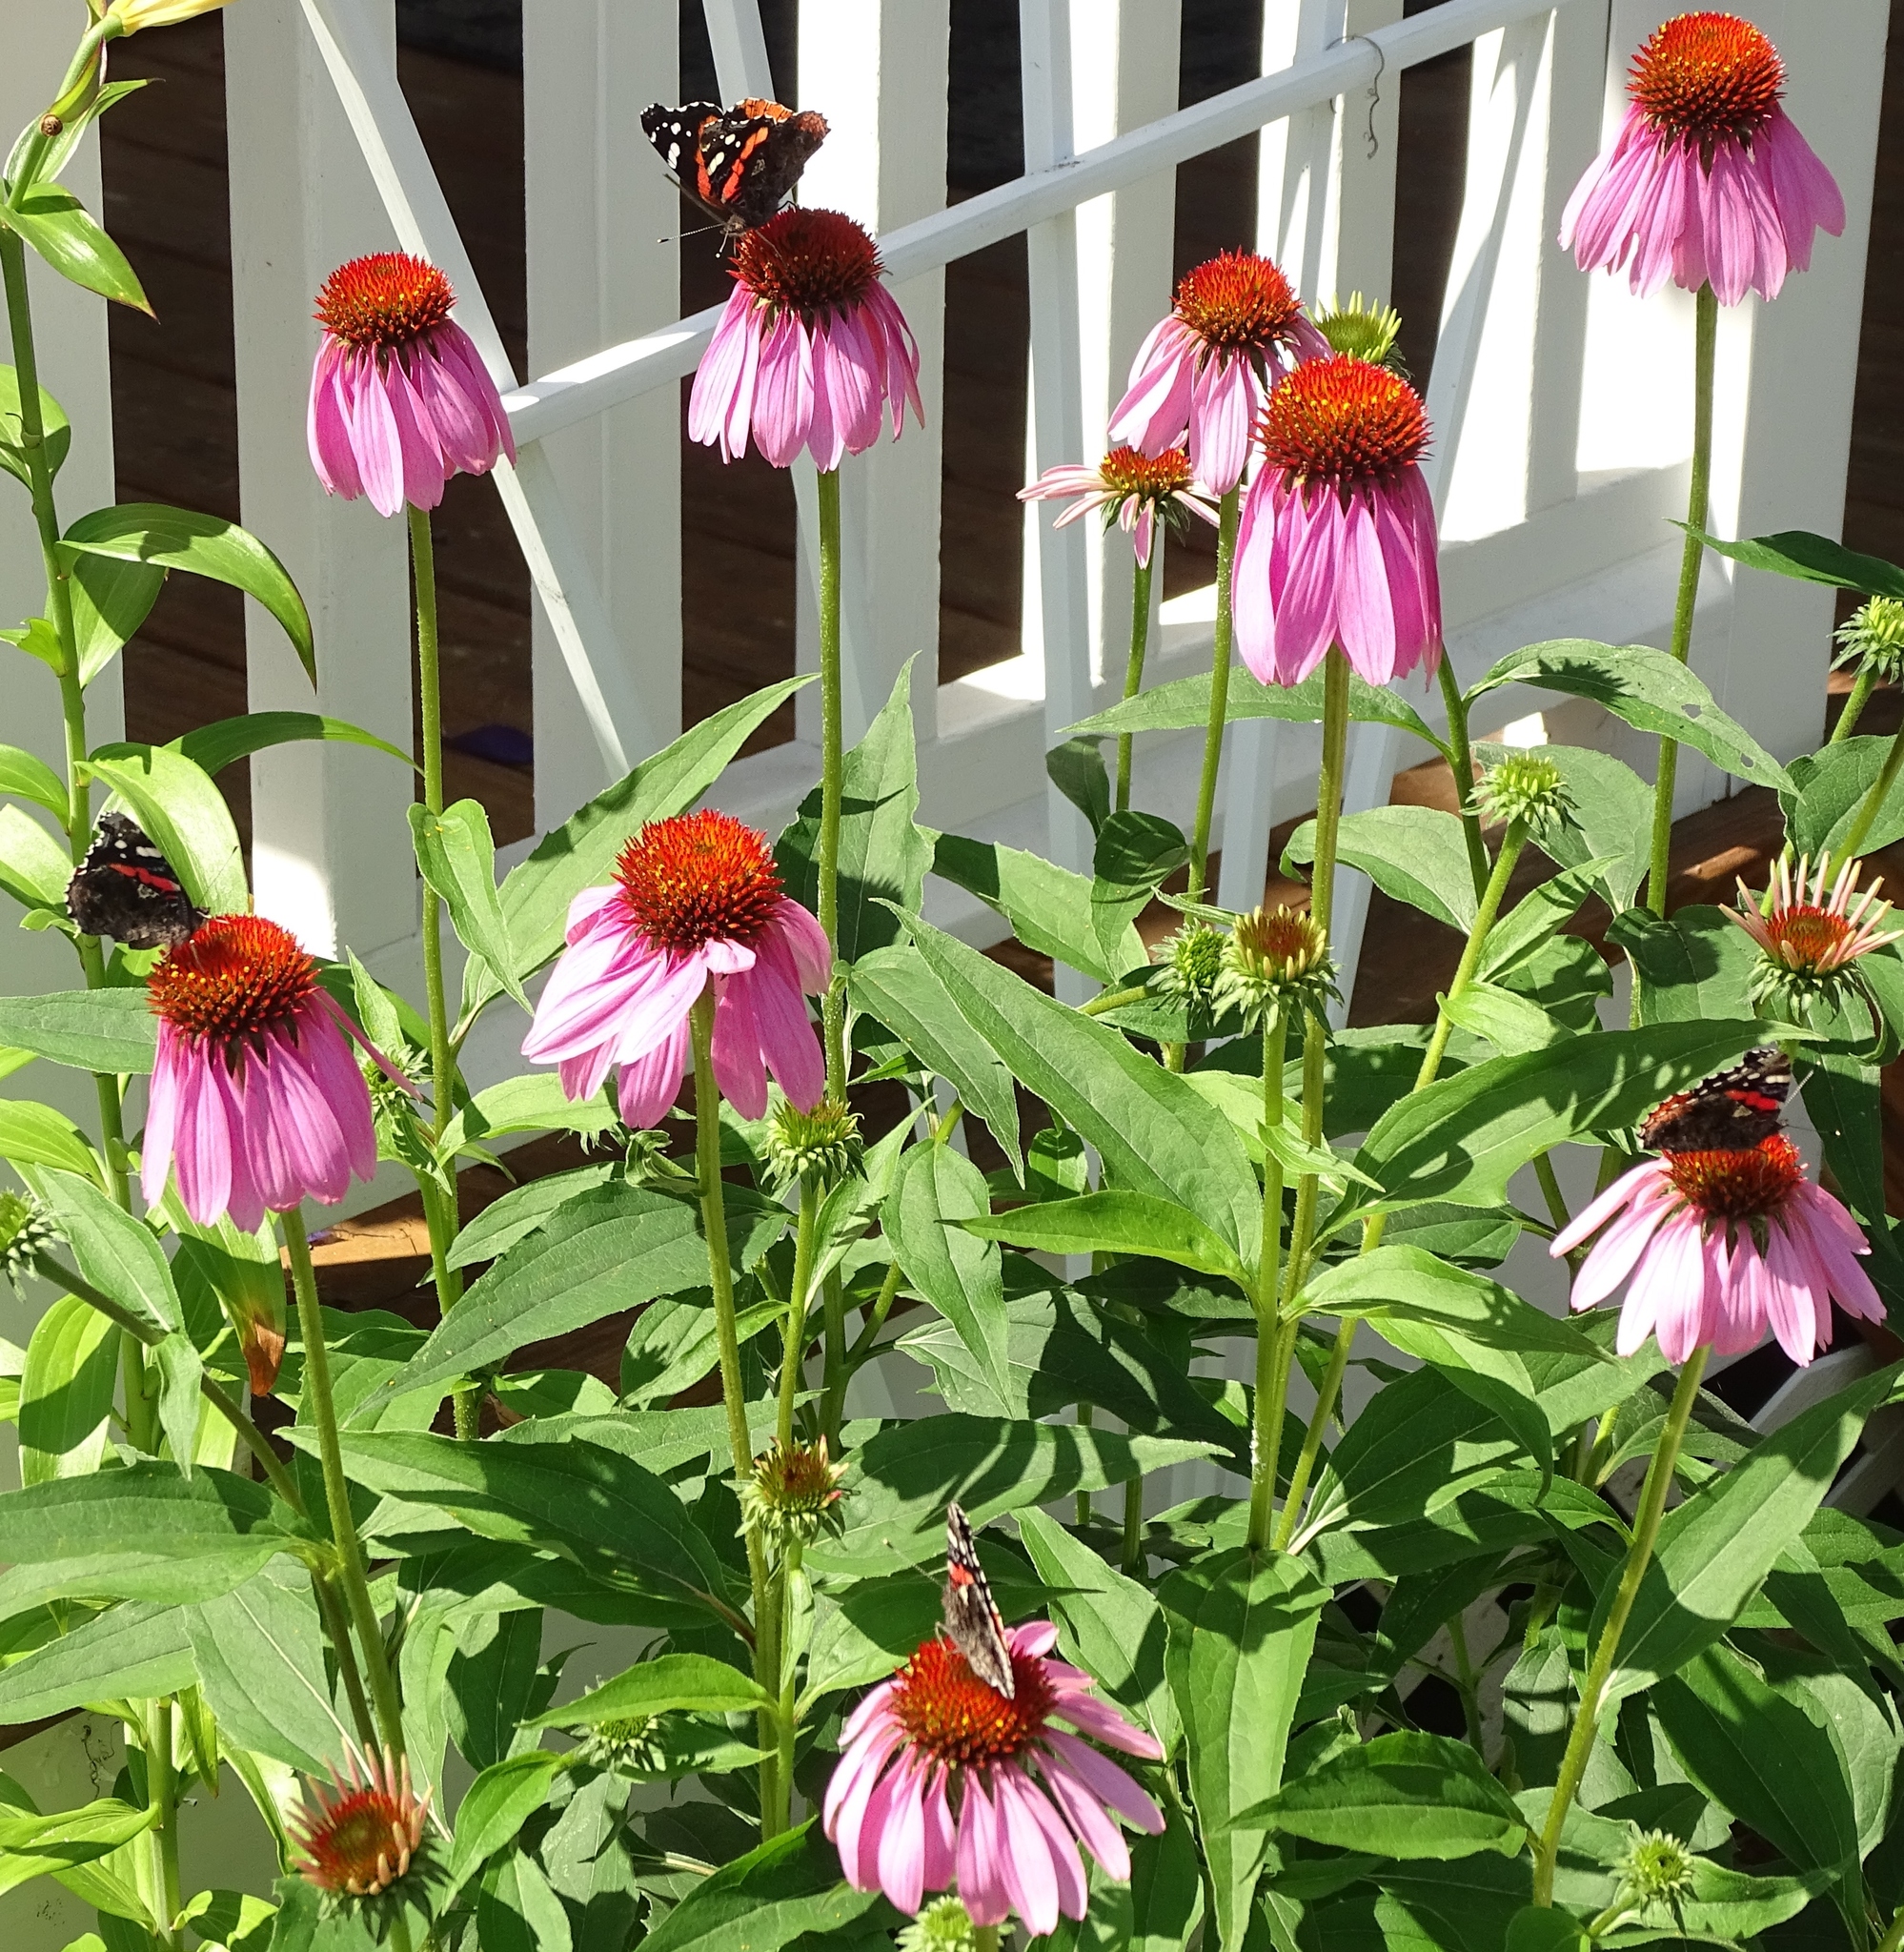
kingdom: Animalia
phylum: Arthropoda
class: Insecta
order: Lepidoptera
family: Nymphalidae
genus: Vanessa
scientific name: Vanessa atalanta
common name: Red admiral
